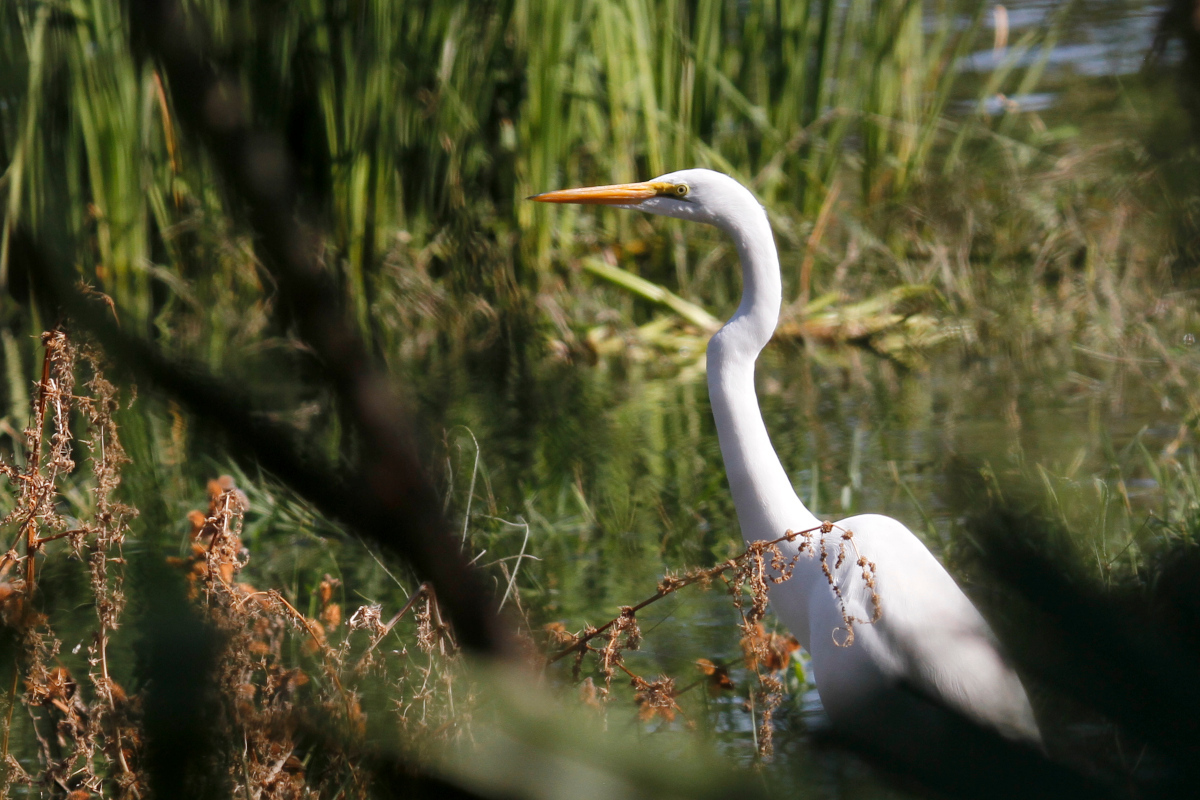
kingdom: Animalia
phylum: Chordata
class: Aves
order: Pelecaniformes
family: Ardeidae
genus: Ardea
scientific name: Ardea alba
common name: Great egret
